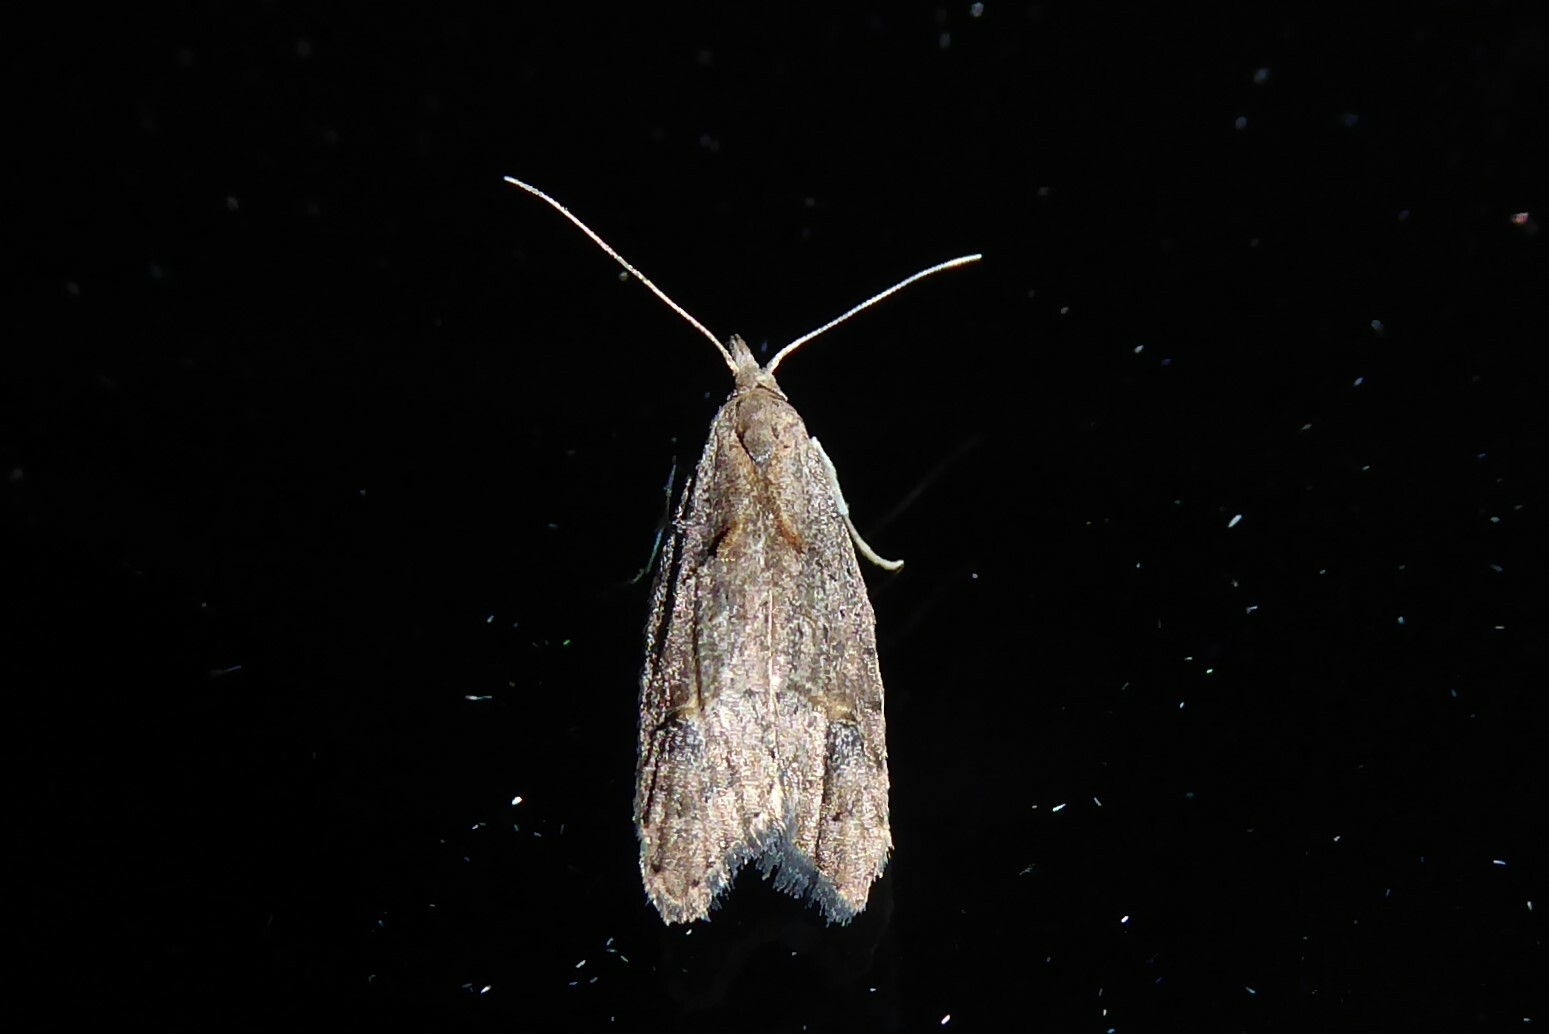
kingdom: Animalia
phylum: Arthropoda
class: Insecta
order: Lepidoptera
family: Carposinidae
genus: Carposina
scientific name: Carposina rubophaga
